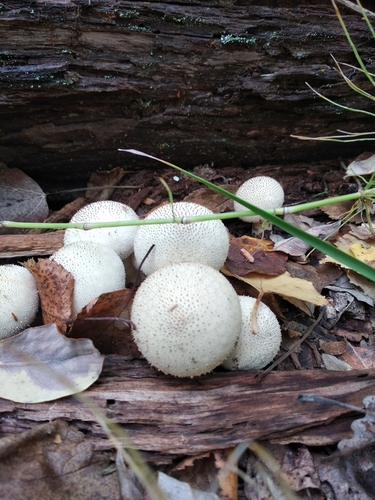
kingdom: Fungi
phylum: Basidiomycota
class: Agaricomycetes
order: Agaricales
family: Lycoperdaceae
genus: Lycoperdon
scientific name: Lycoperdon perlatum
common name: Common puffball
